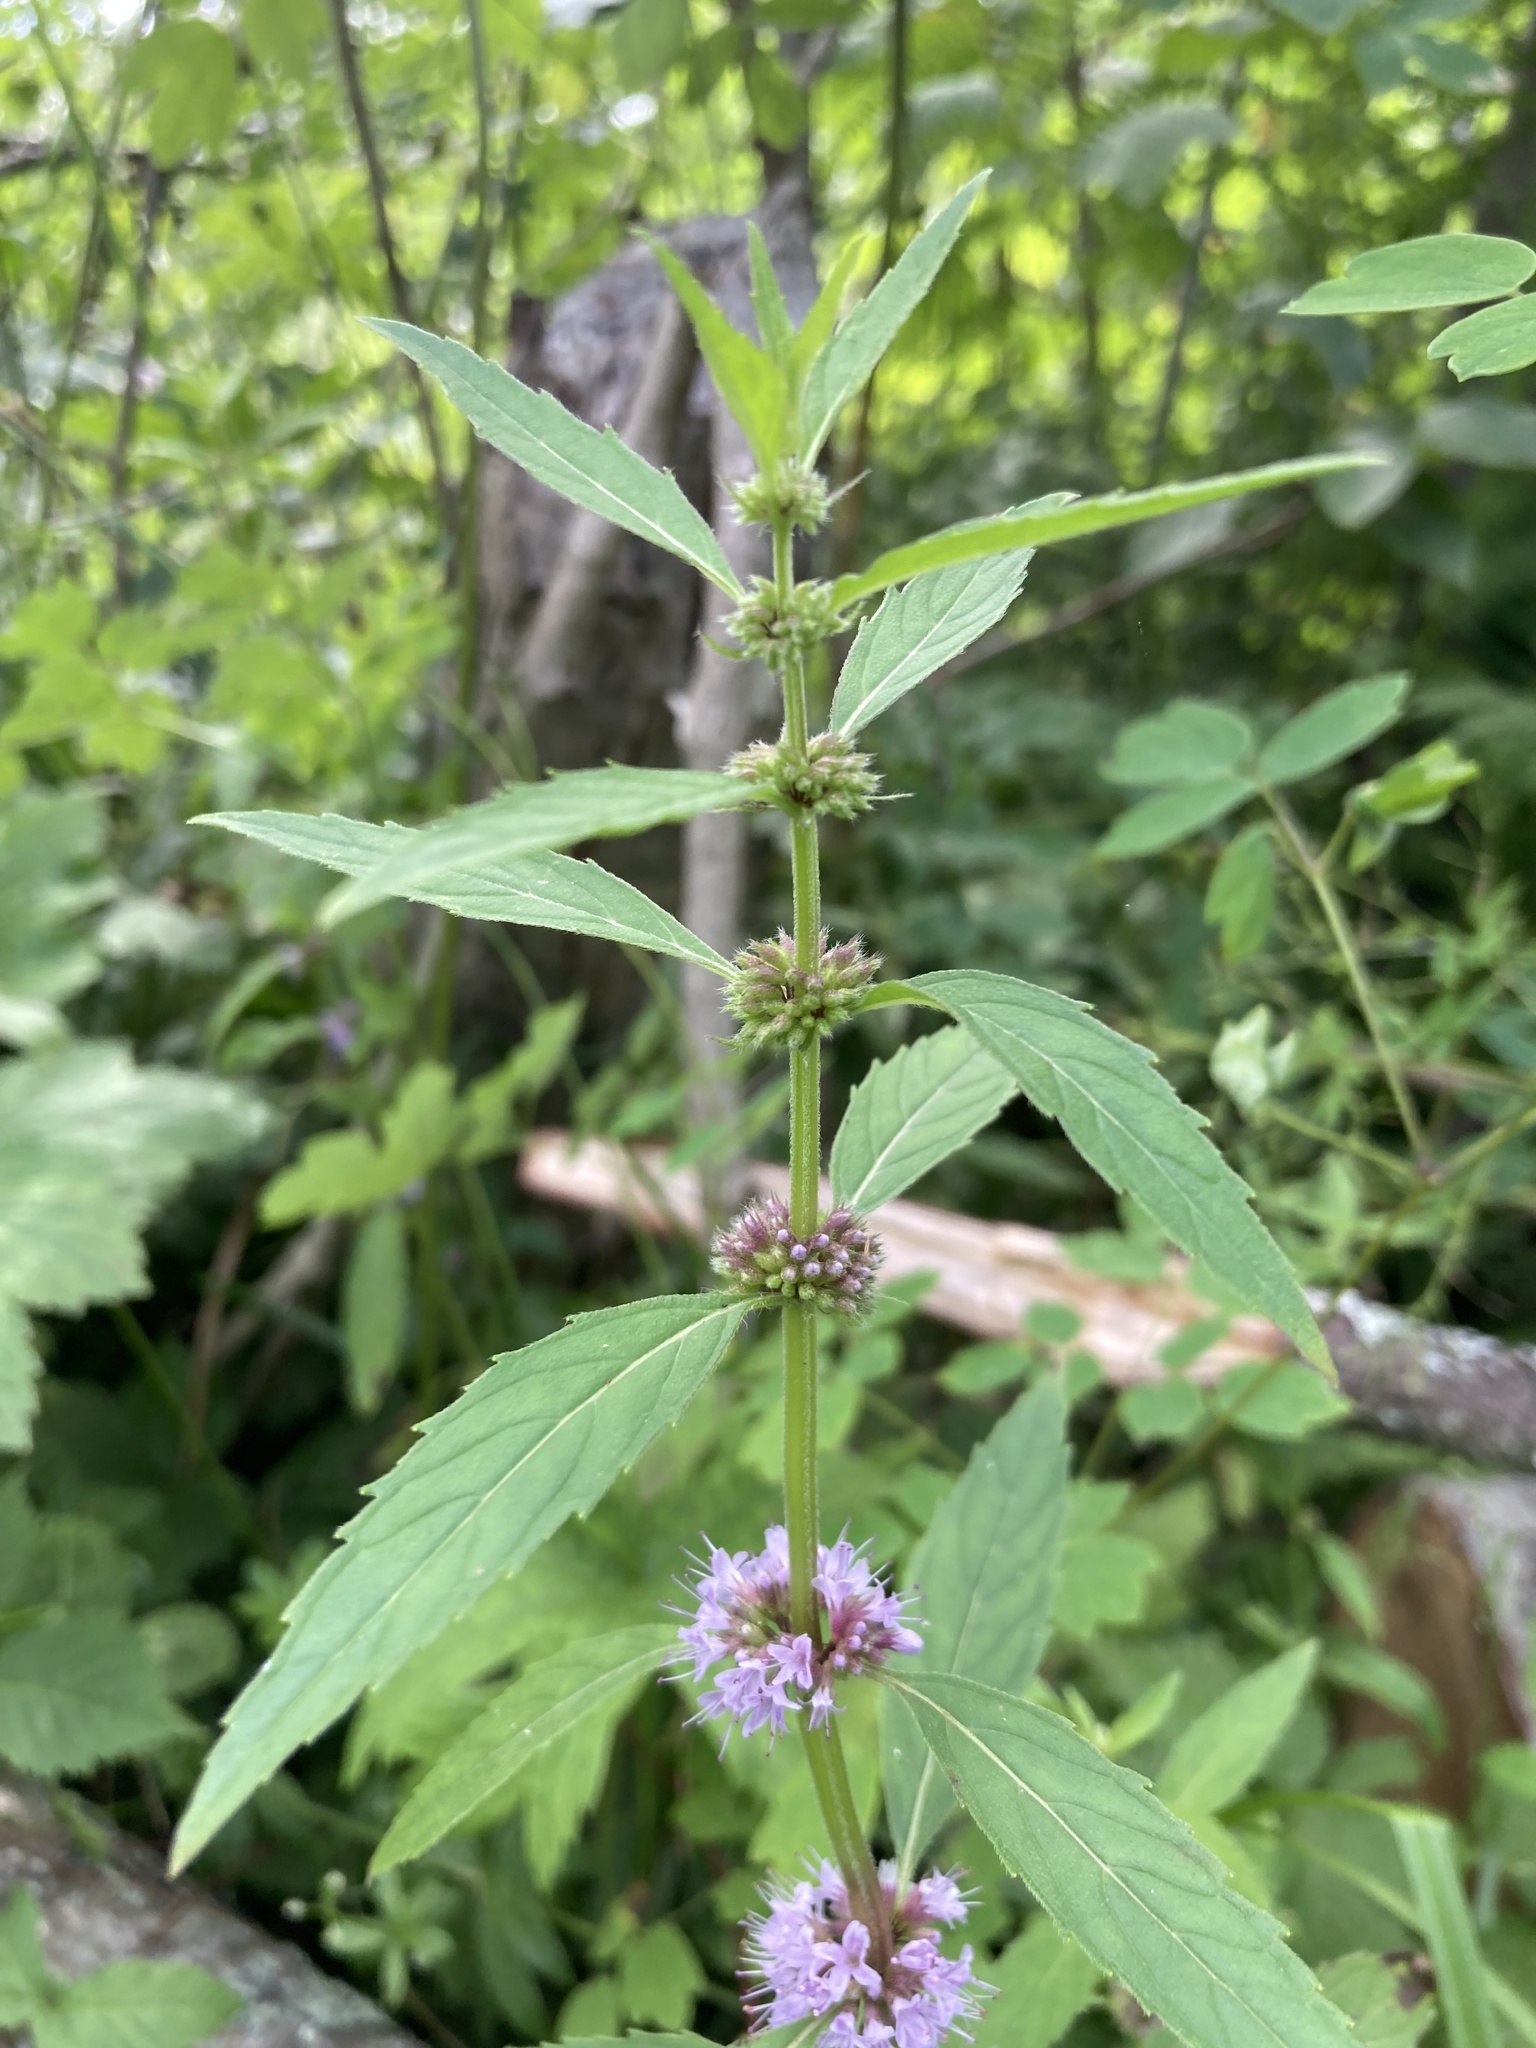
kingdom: Plantae
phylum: Tracheophyta
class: Magnoliopsida
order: Lamiales
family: Lamiaceae
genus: Mentha
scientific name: Mentha canadensis
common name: American corn mint
